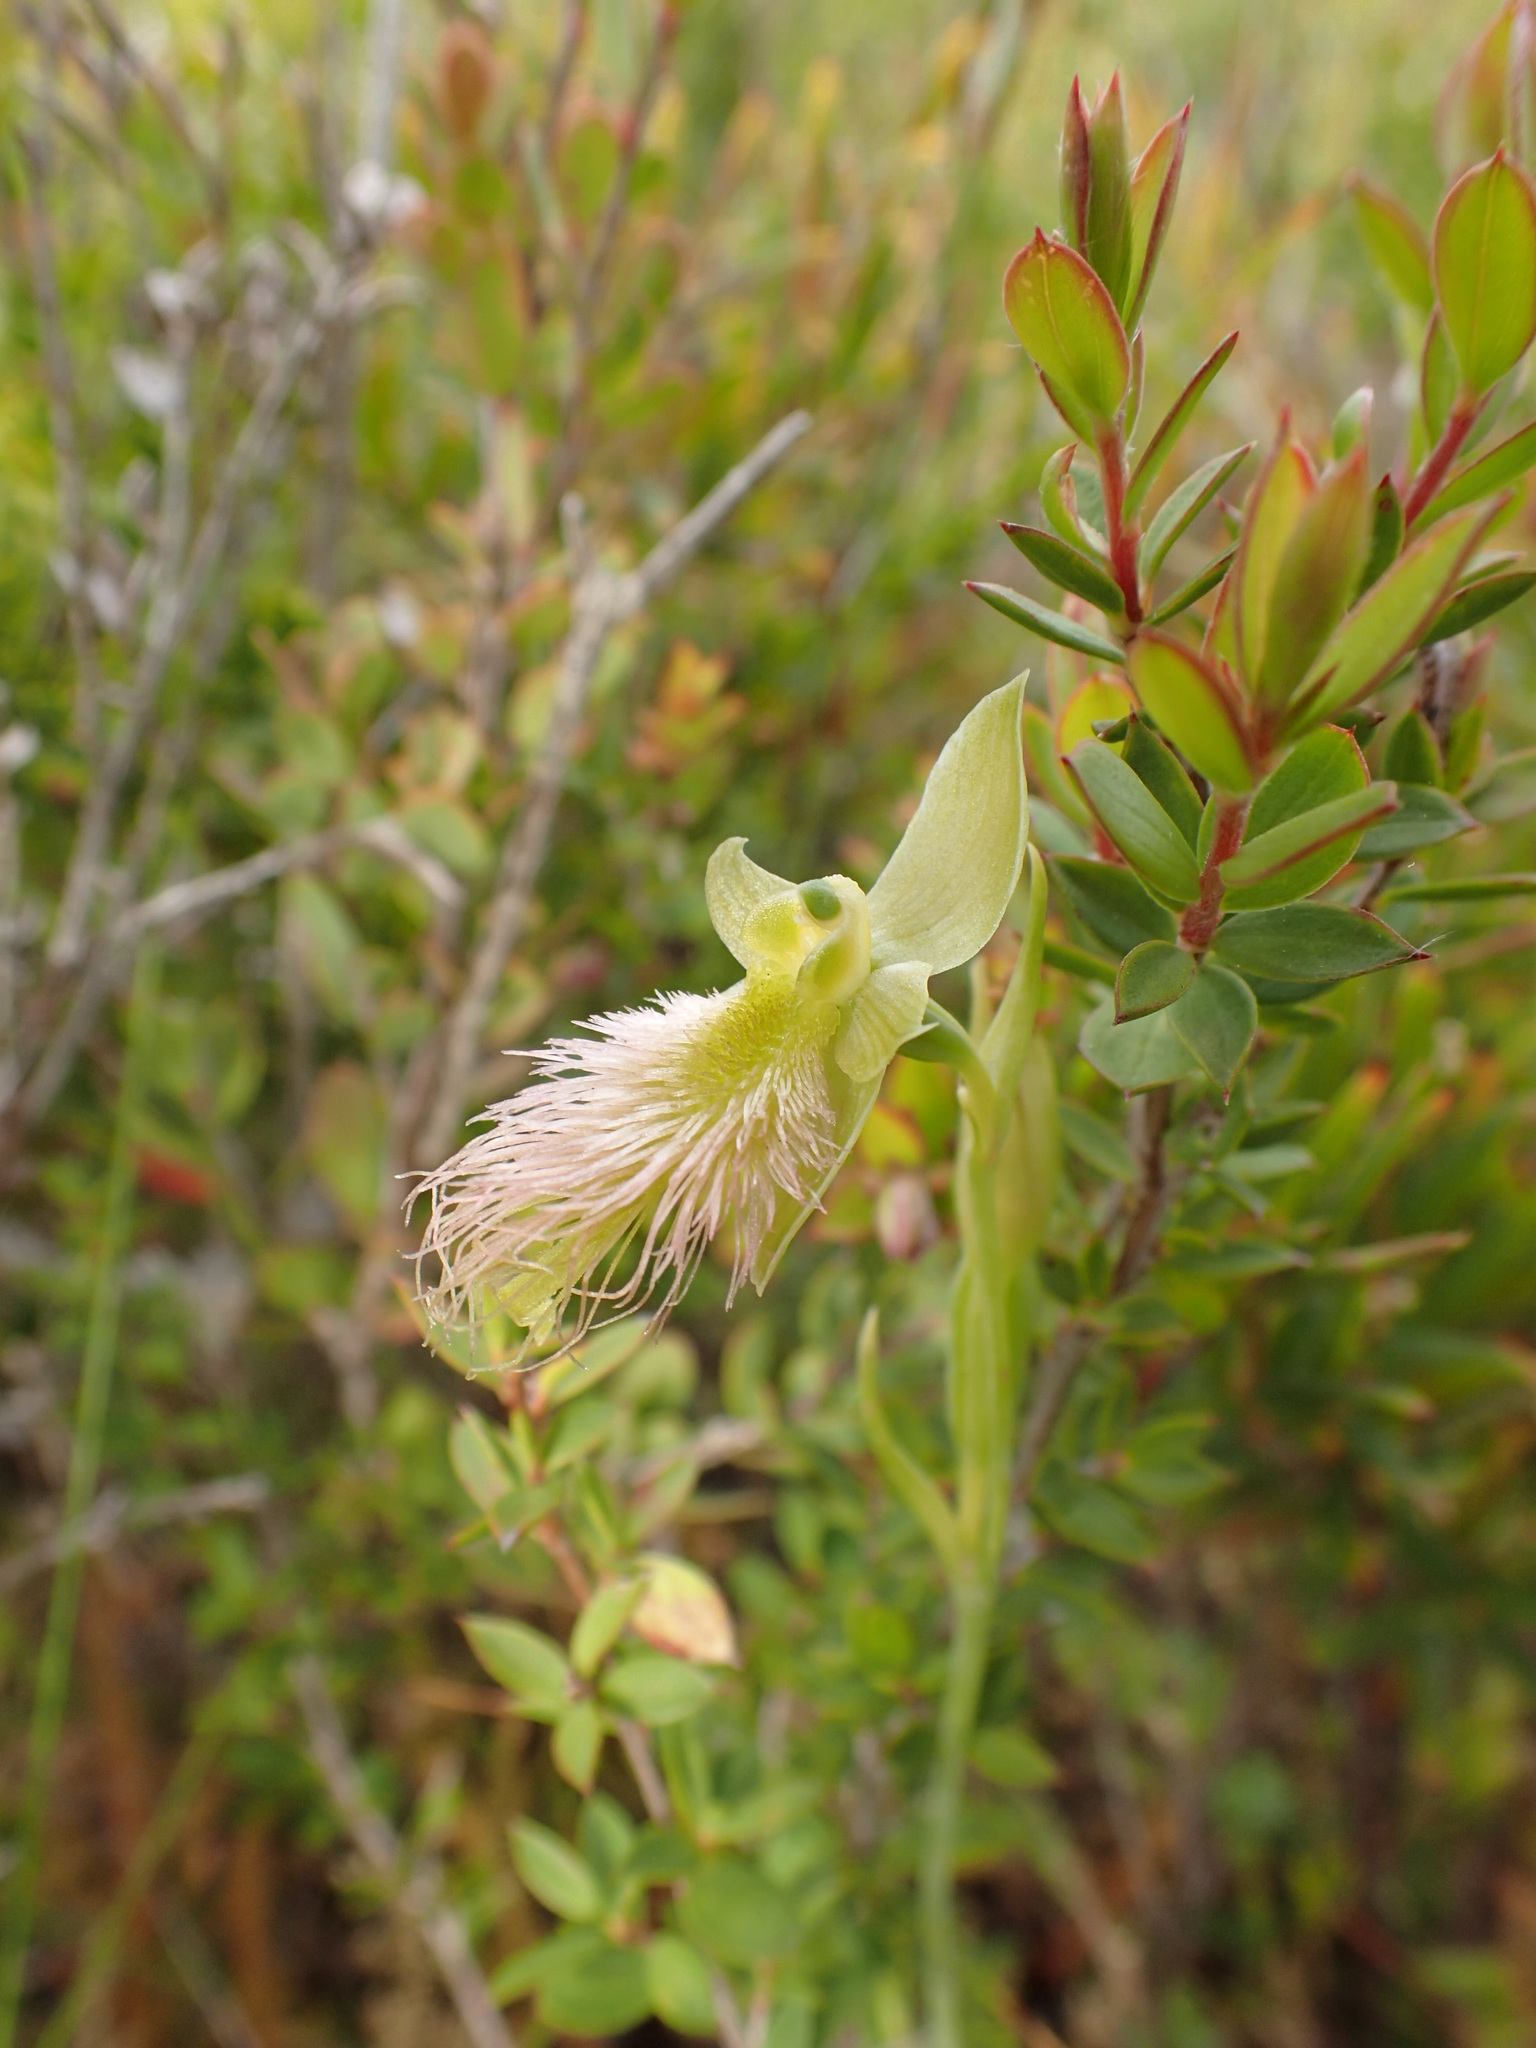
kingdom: Plantae
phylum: Tracheophyta
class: Liliopsida
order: Asparagales
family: Orchidaceae
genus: Calochilus
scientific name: Calochilus paludosus
